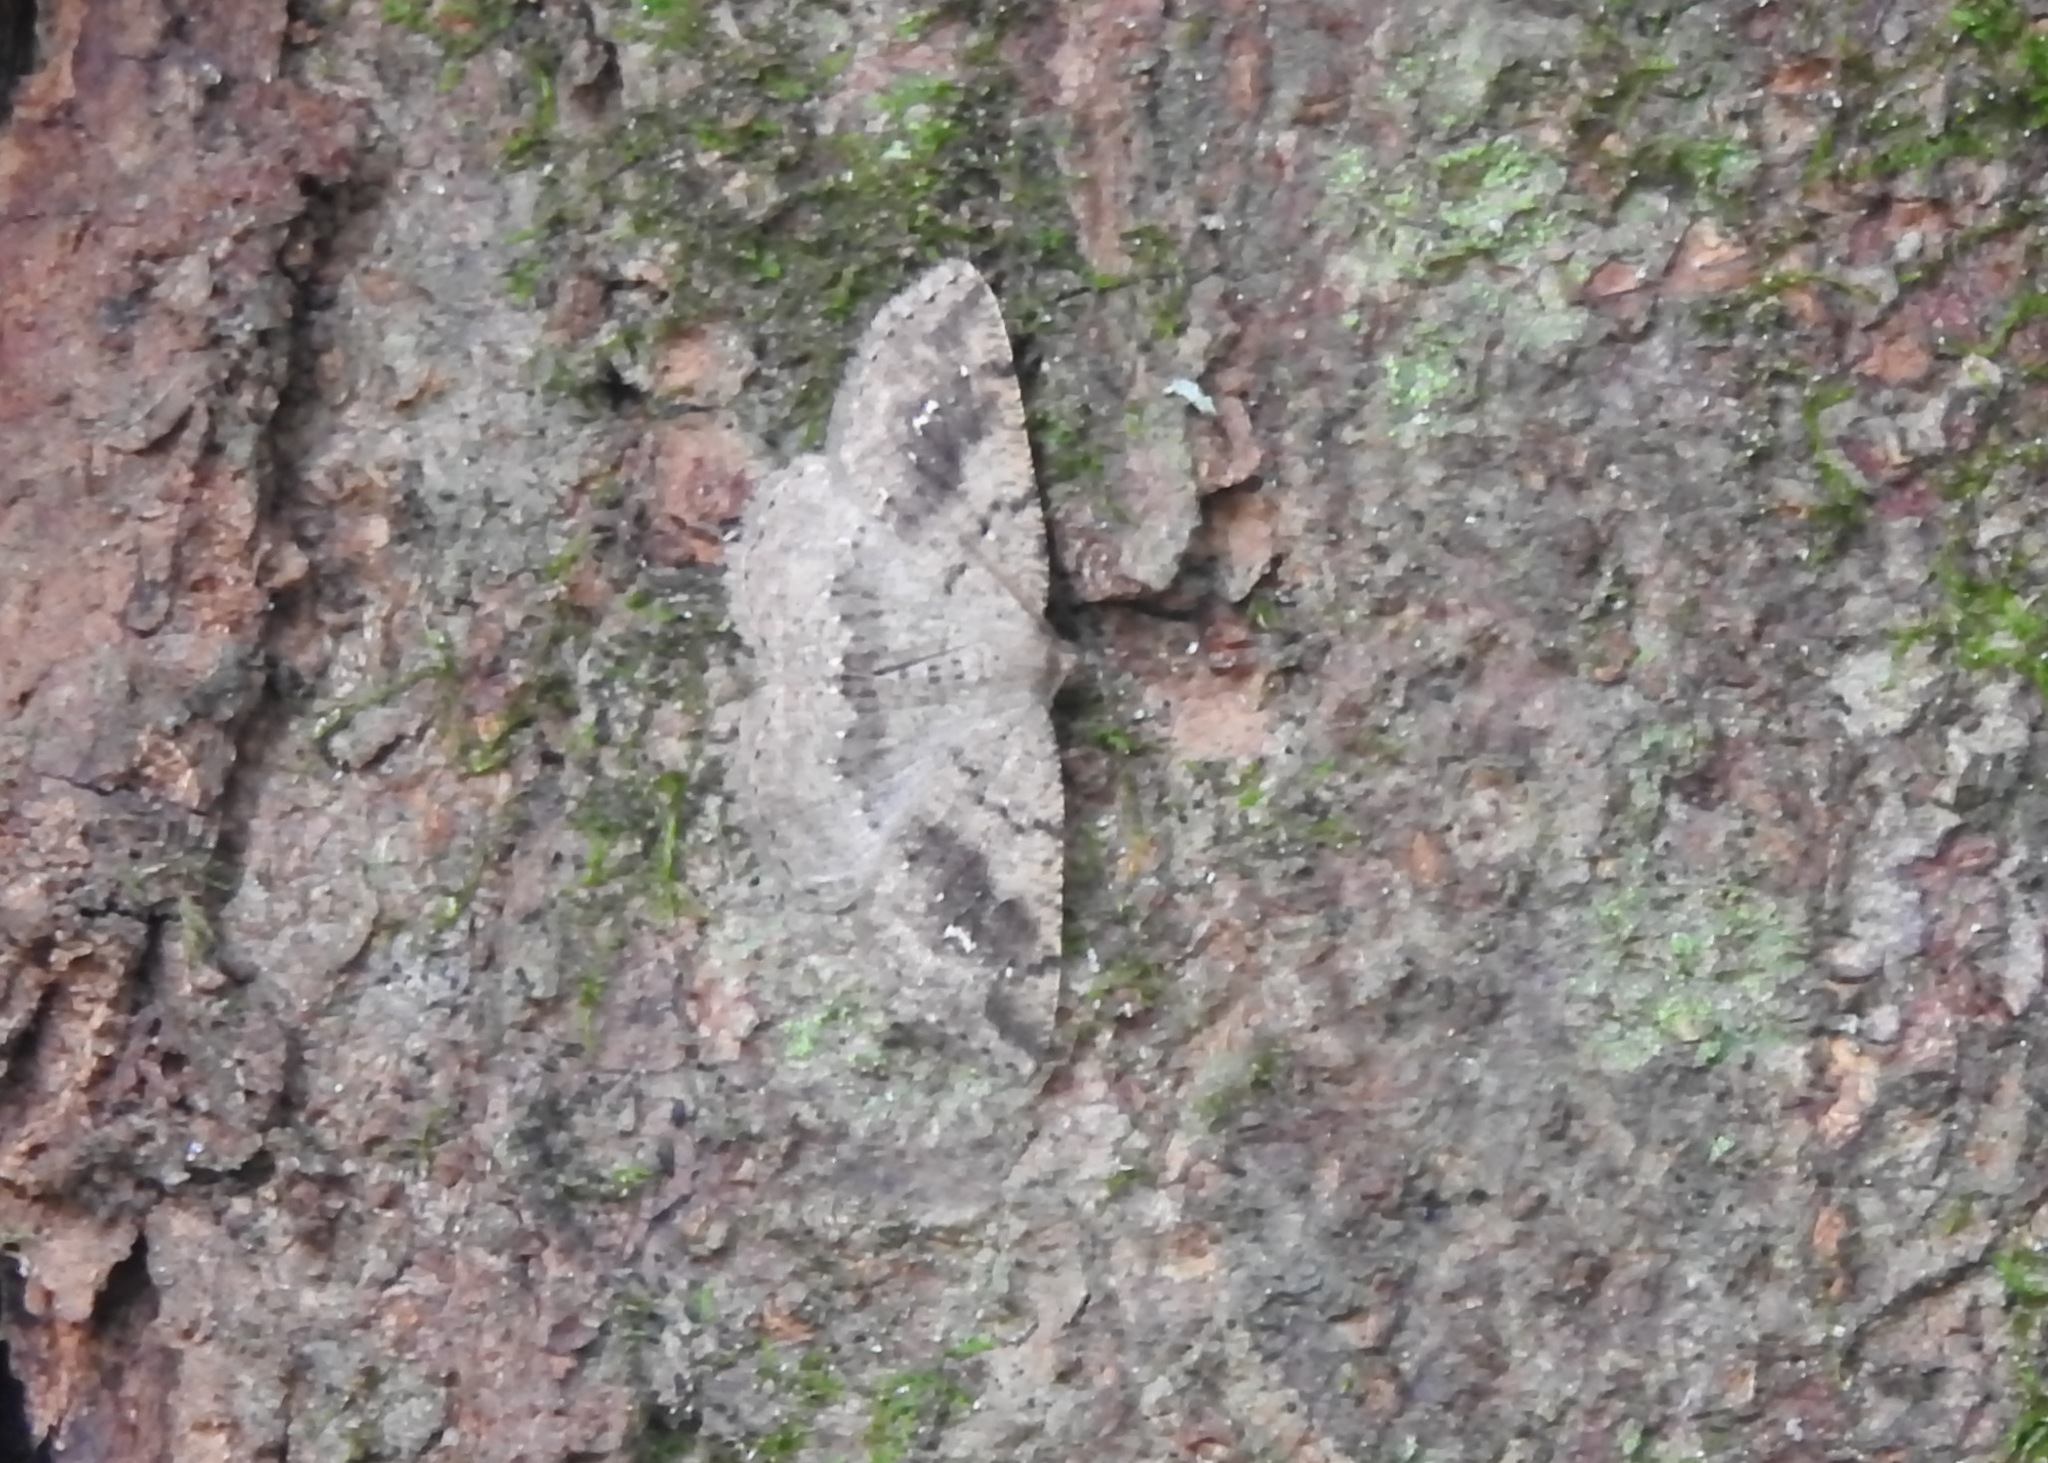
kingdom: Animalia
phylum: Arthropoda
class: Insecta
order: Lepidoptera
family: Geometridae
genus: Homochlodes
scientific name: Homochlodes fritillaria
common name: Pale homochlodes
